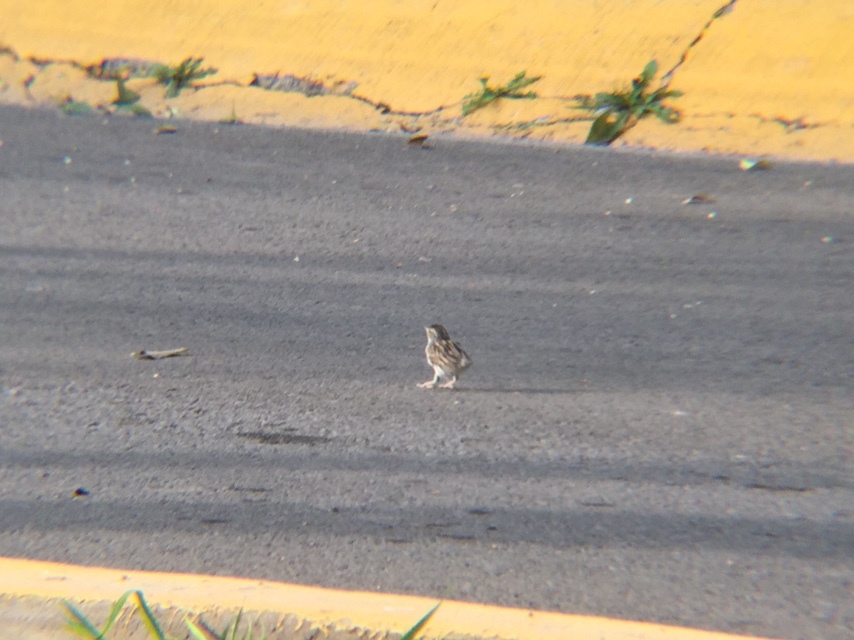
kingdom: Animalia
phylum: Chordata
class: Aves
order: Passeriformes
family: Passerellidae
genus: Spizella
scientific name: Spizella passerina
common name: Chipping sparrow
